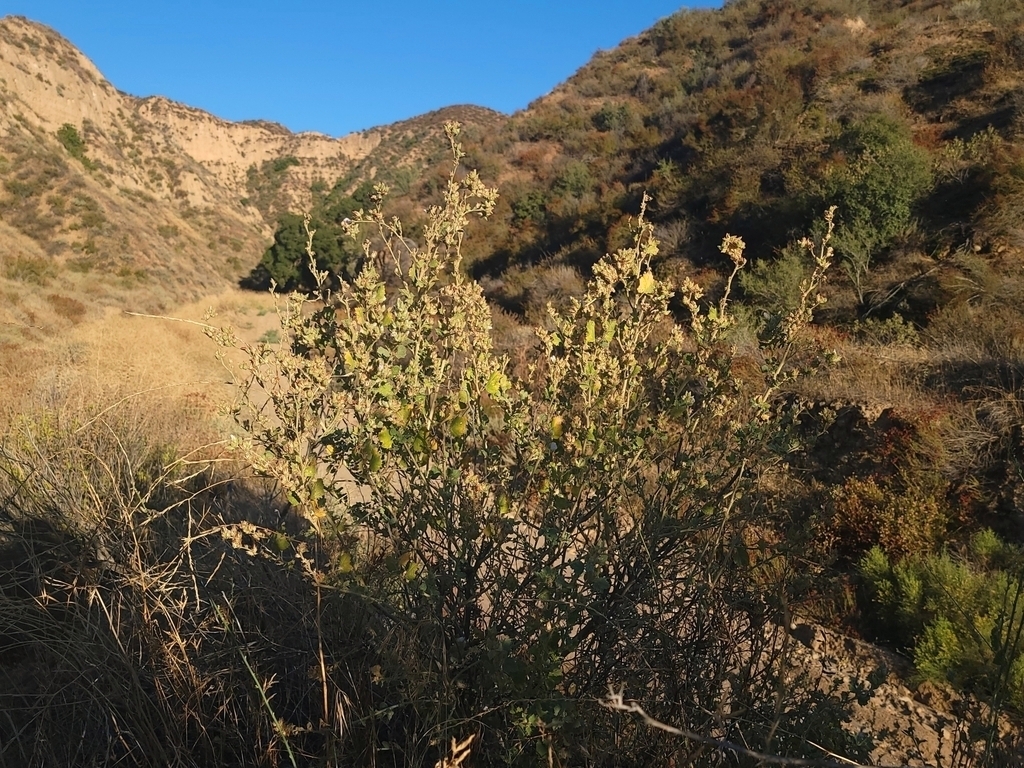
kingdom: Plantae
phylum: Tracheophyta
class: Magnoliopsida
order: Malvales
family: Malvaceae
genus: Malacothamnus
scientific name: Malacothamnus marrubioides
